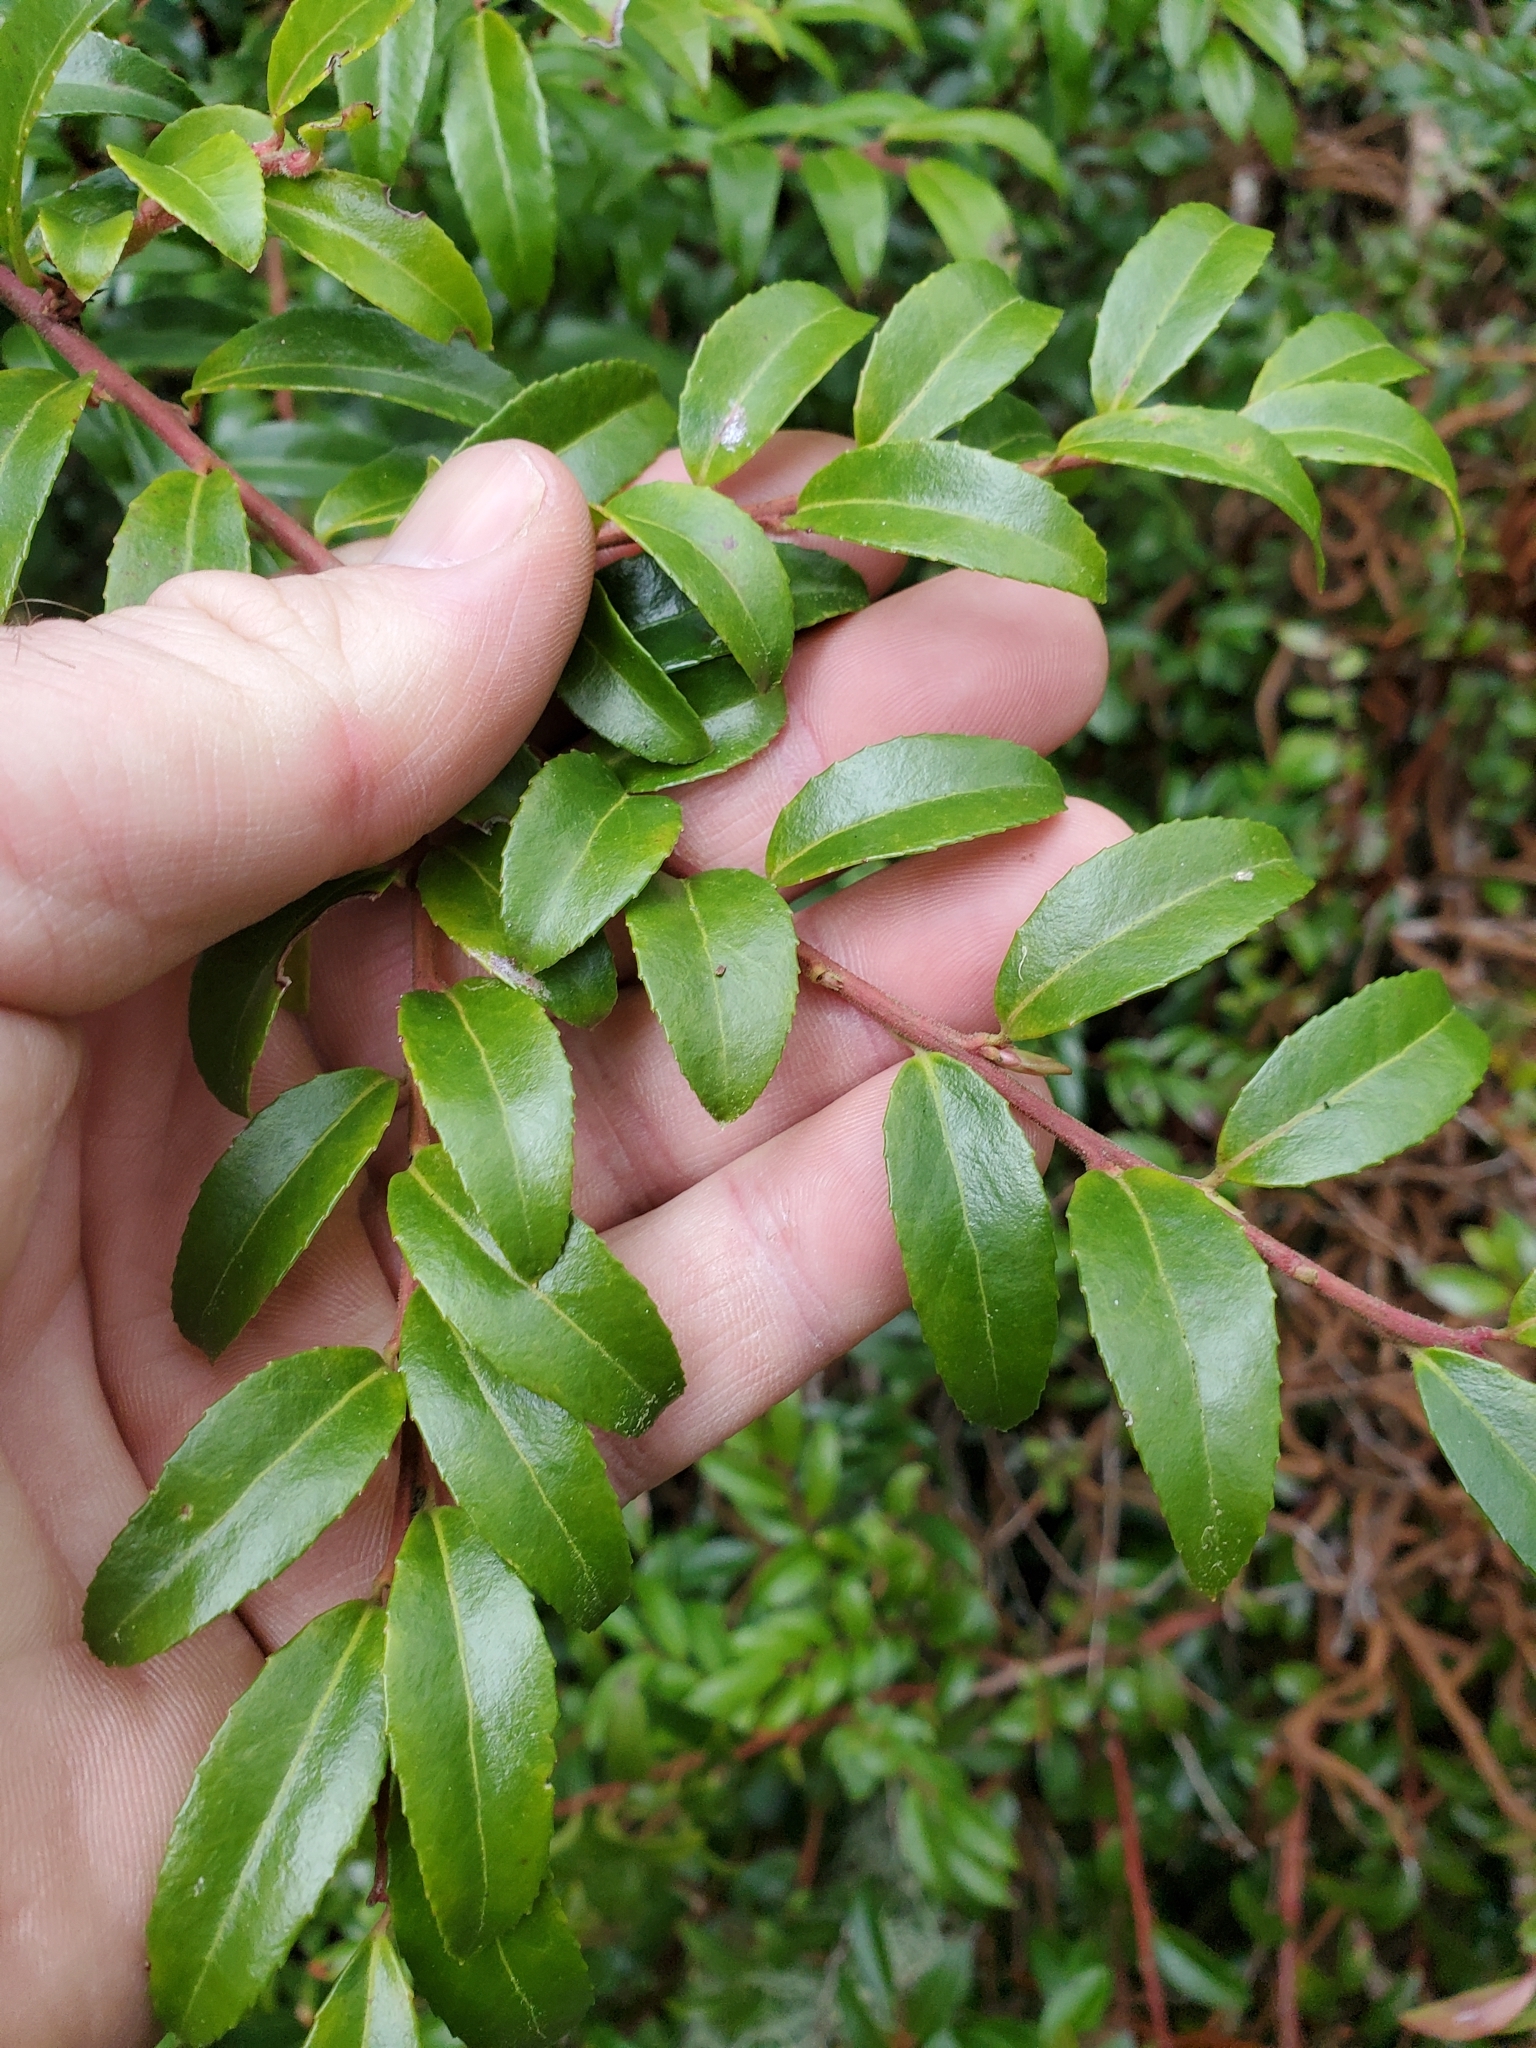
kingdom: Plantae
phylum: Tracheophyta
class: Magnoliopsida
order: Ericales
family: Ericaceae
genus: Vaccinium
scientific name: Vaccinium ovatum
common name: California-huckleberry
